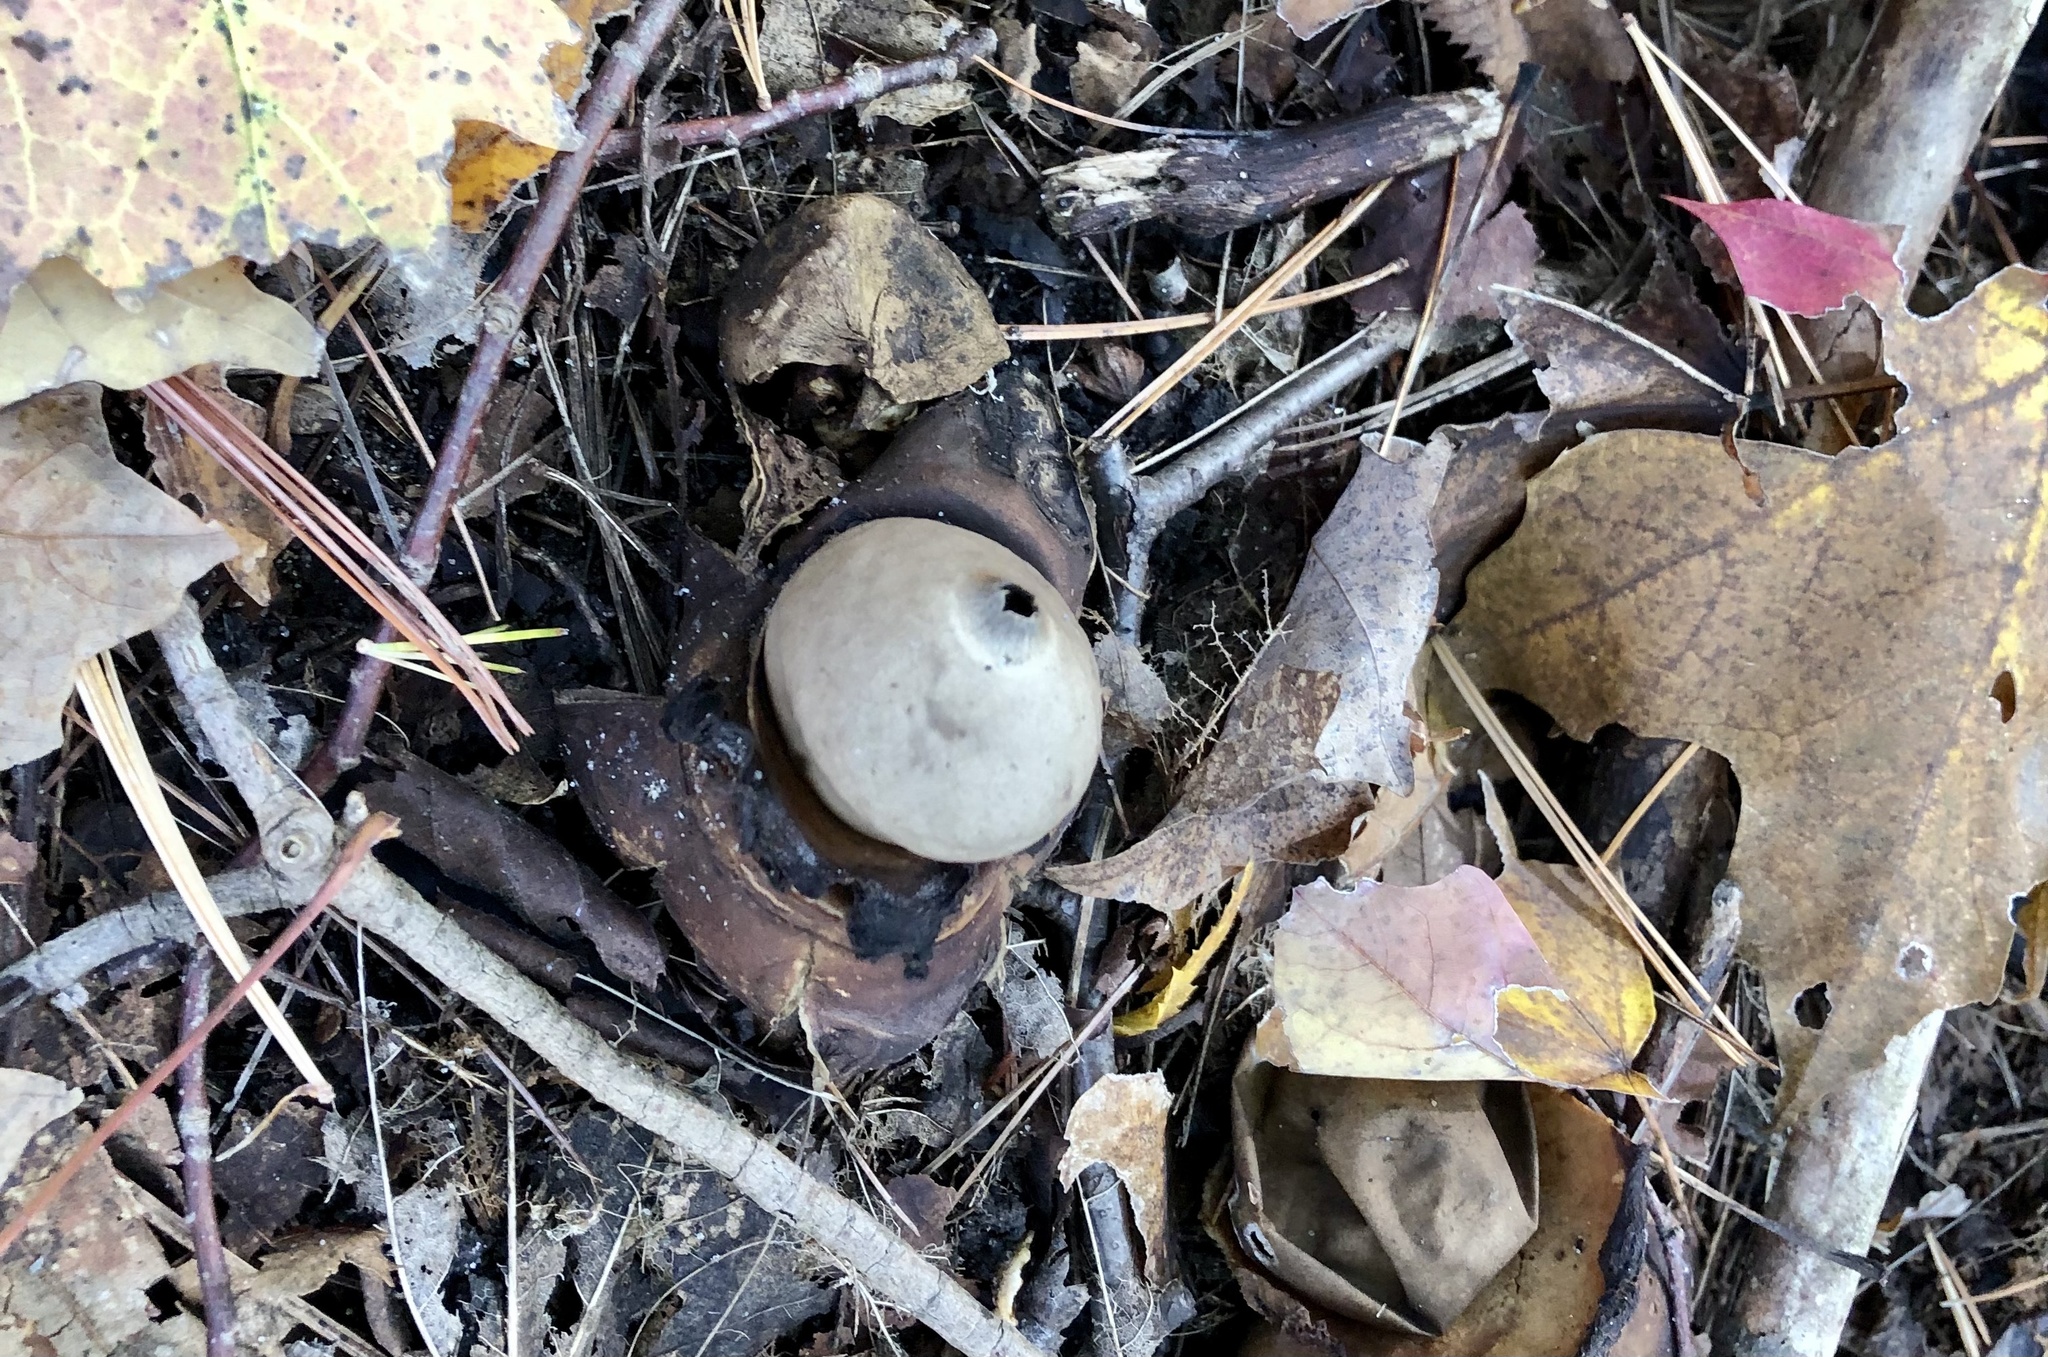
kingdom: Fungi
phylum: Basidiomycota
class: Agaricomycetes
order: Geastrales
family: Geastraceae
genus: Geastrum
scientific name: Geastrum triplex
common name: Collared earthstar
